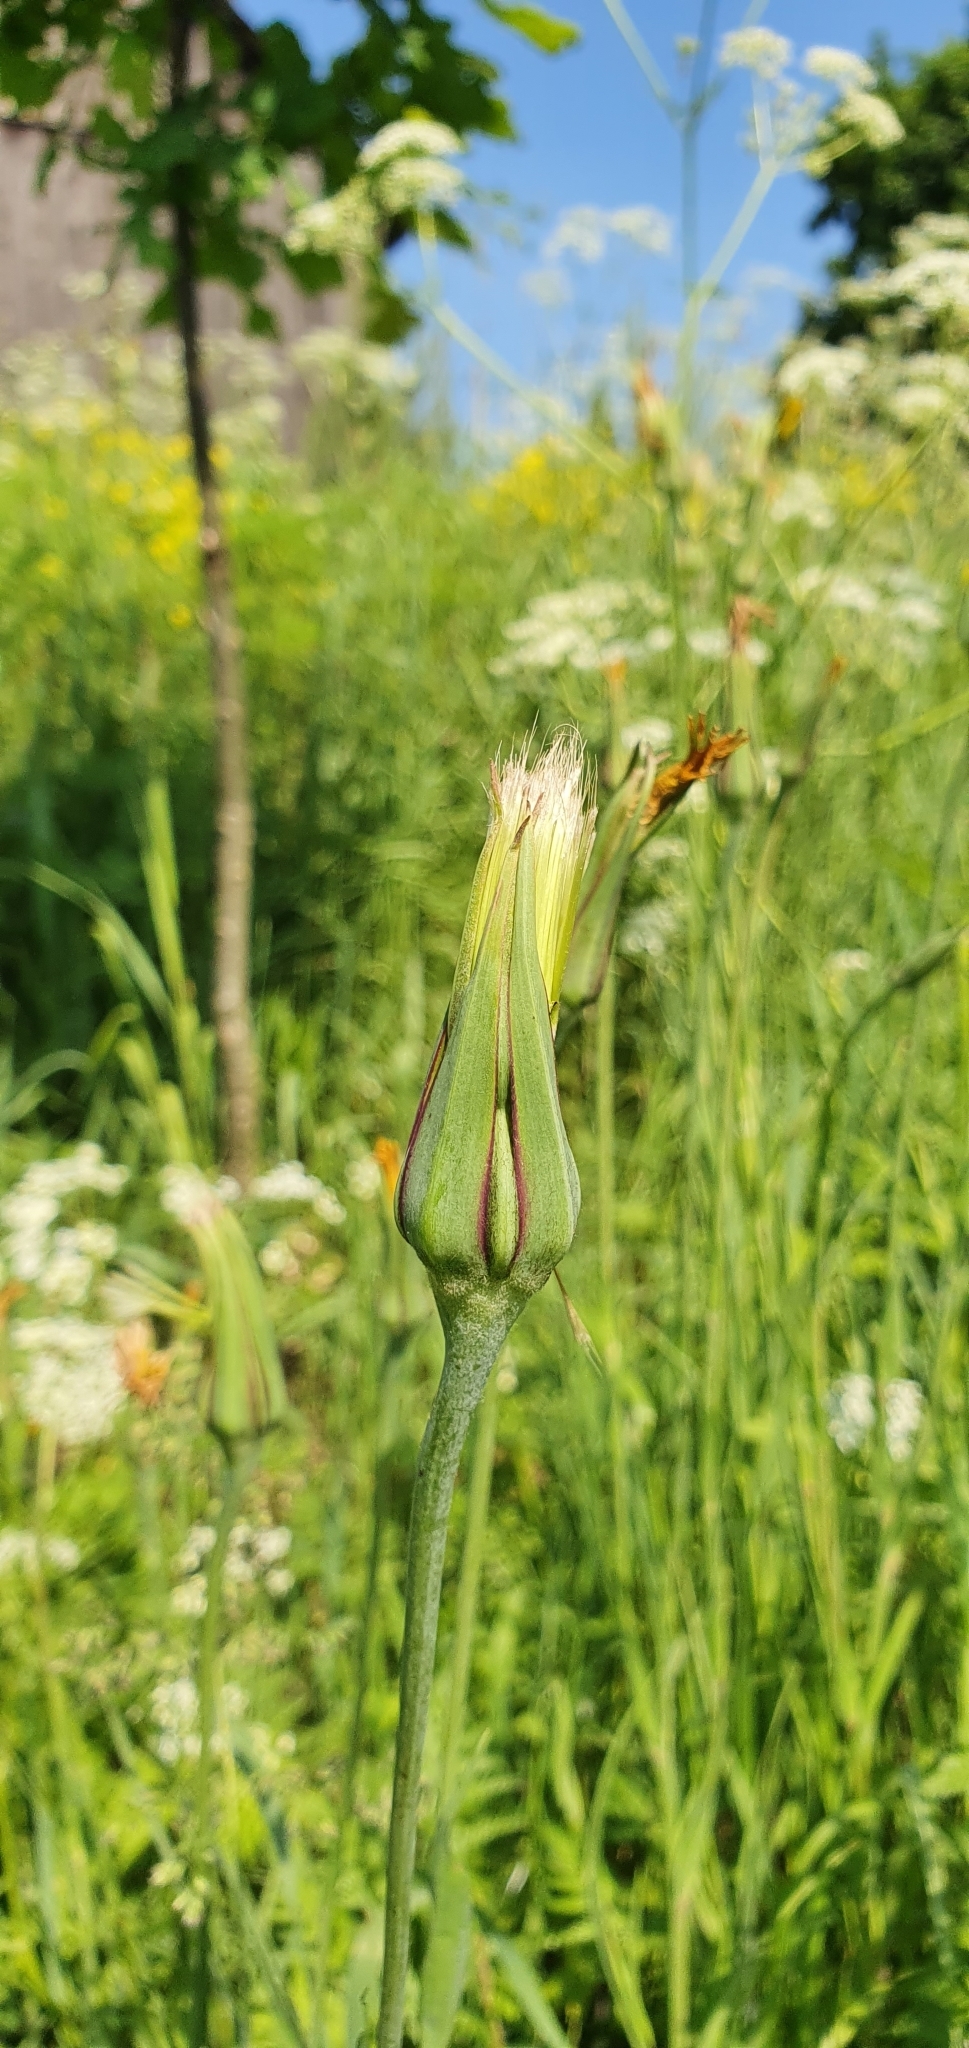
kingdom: Plantae
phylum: Tracheophyta
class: Magnoliopsida
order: Asterales
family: Asteraceae
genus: Tragopogon
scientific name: Tragopogon dubius
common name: Yellow salsify
